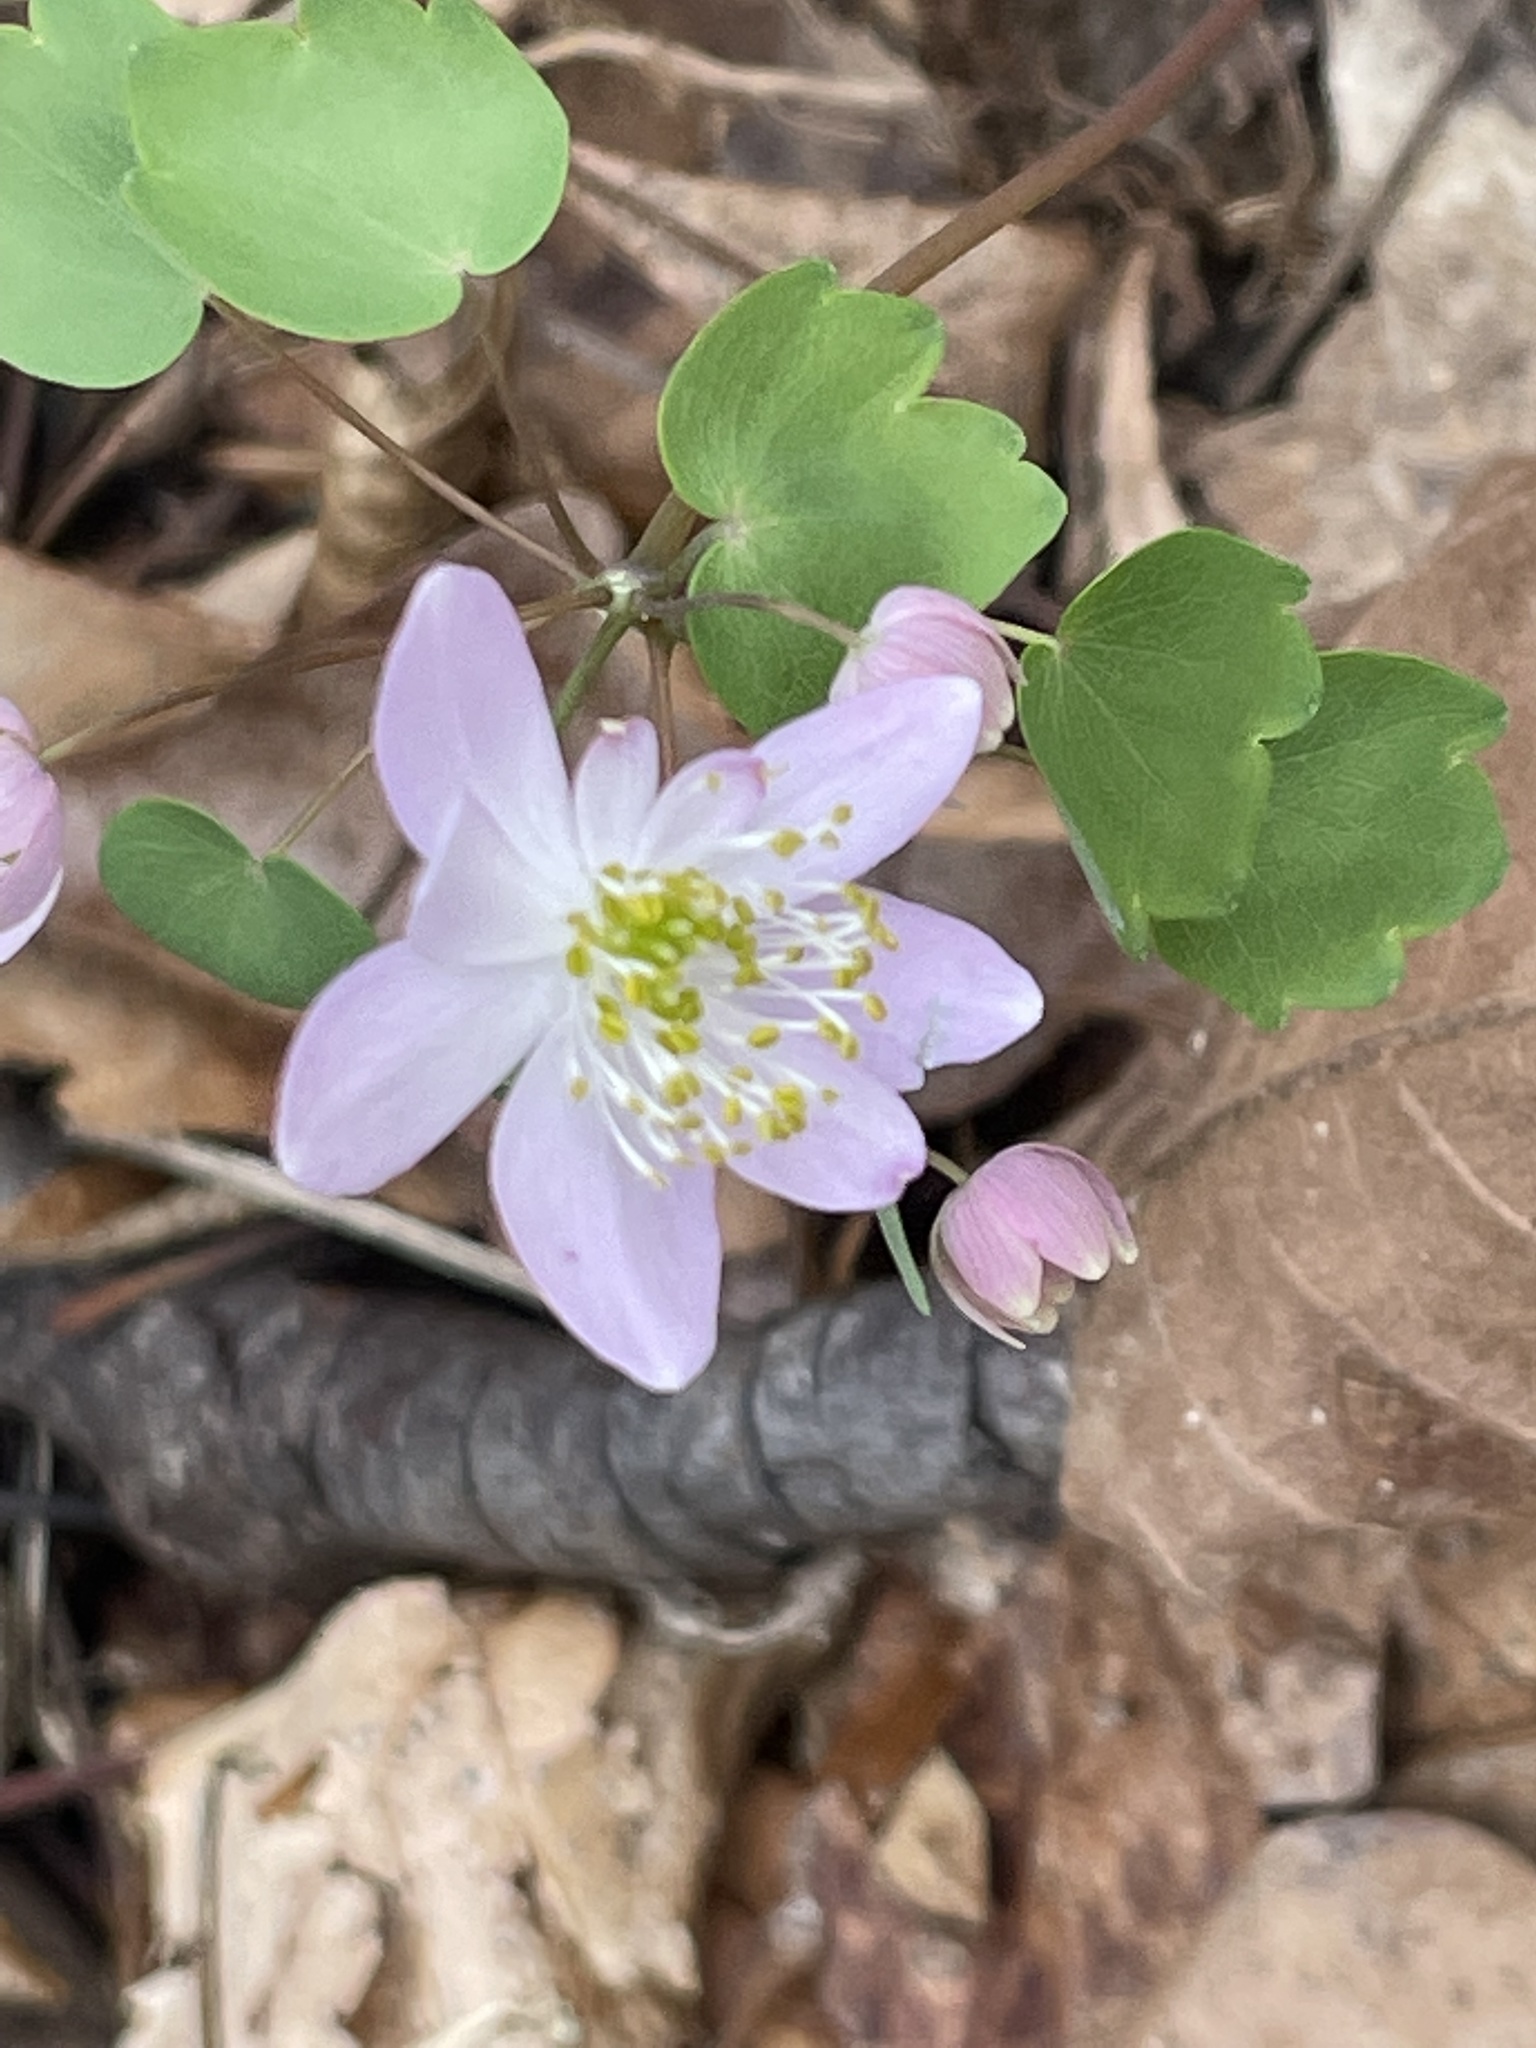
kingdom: Plantae
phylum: Tracheophyta
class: Magnoliopsida
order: Ranunculales
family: Ranunculaceae
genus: Thalictrum
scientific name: Thalictrum thalictroides
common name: Rue-anemone
